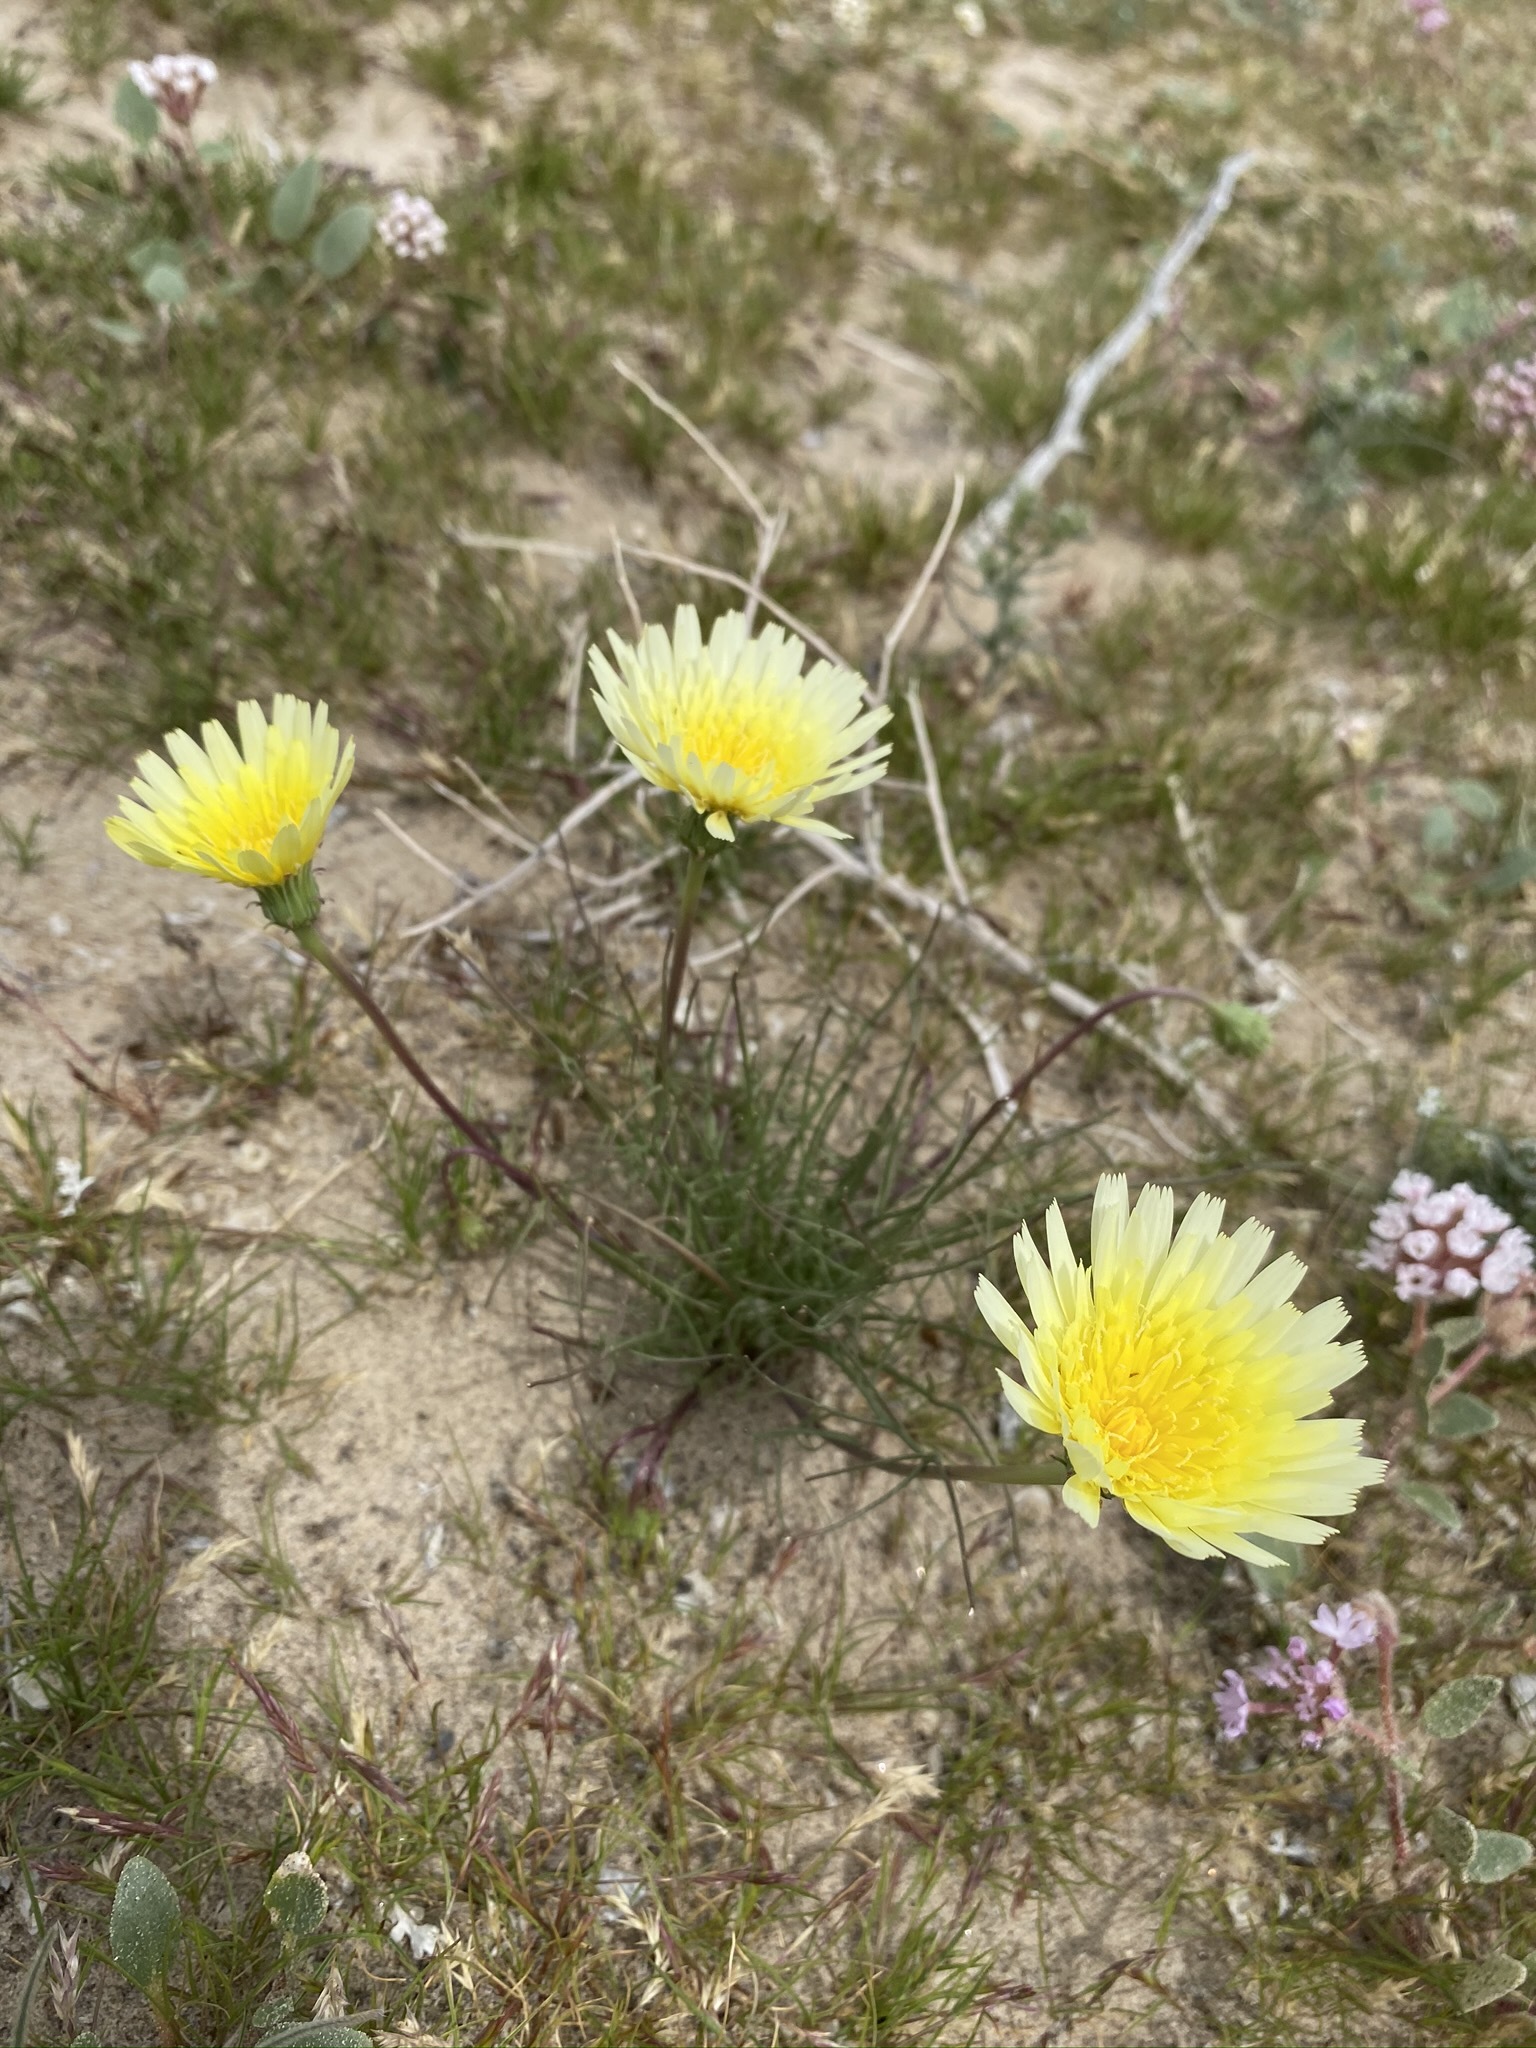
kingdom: Plantae
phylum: Tracheophyta
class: Magnoliopsida
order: Asterales
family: Asteraceae
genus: Malacothrix
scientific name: Malacothrix glabrata
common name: Smooth desert-dandelion
